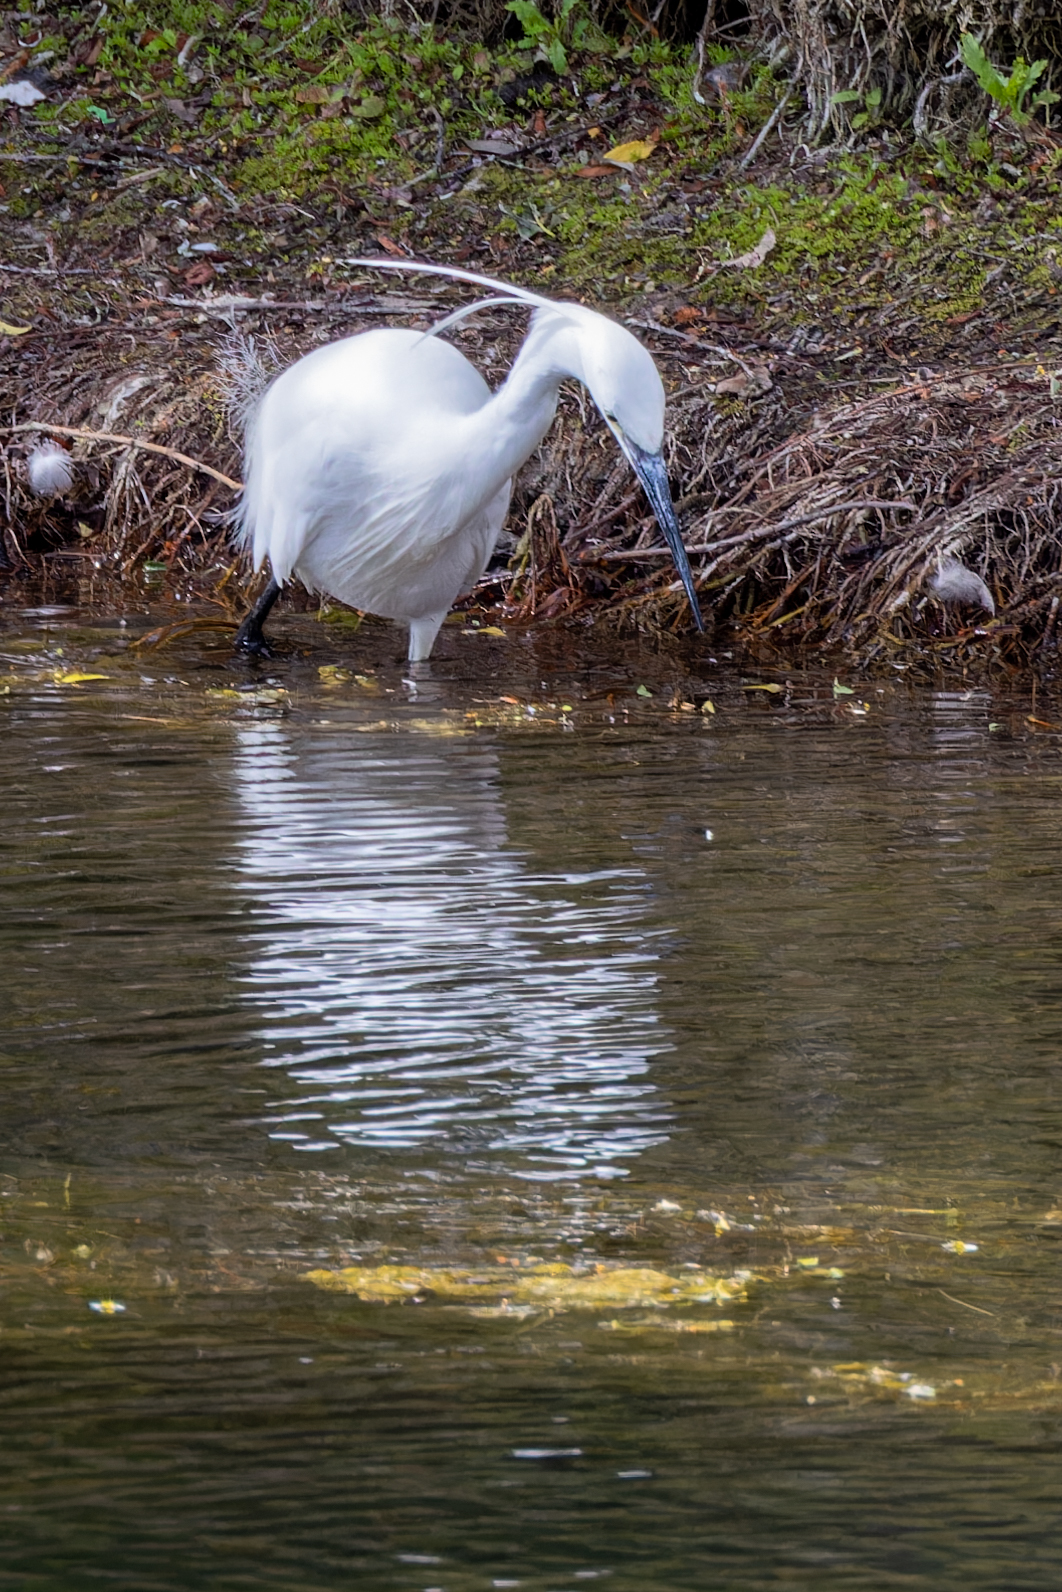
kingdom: Animalia
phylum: Chordata
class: Aves
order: Pelecaniformes
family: Ardeidae
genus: Egretta
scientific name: Egretta garzetta
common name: Little egret
